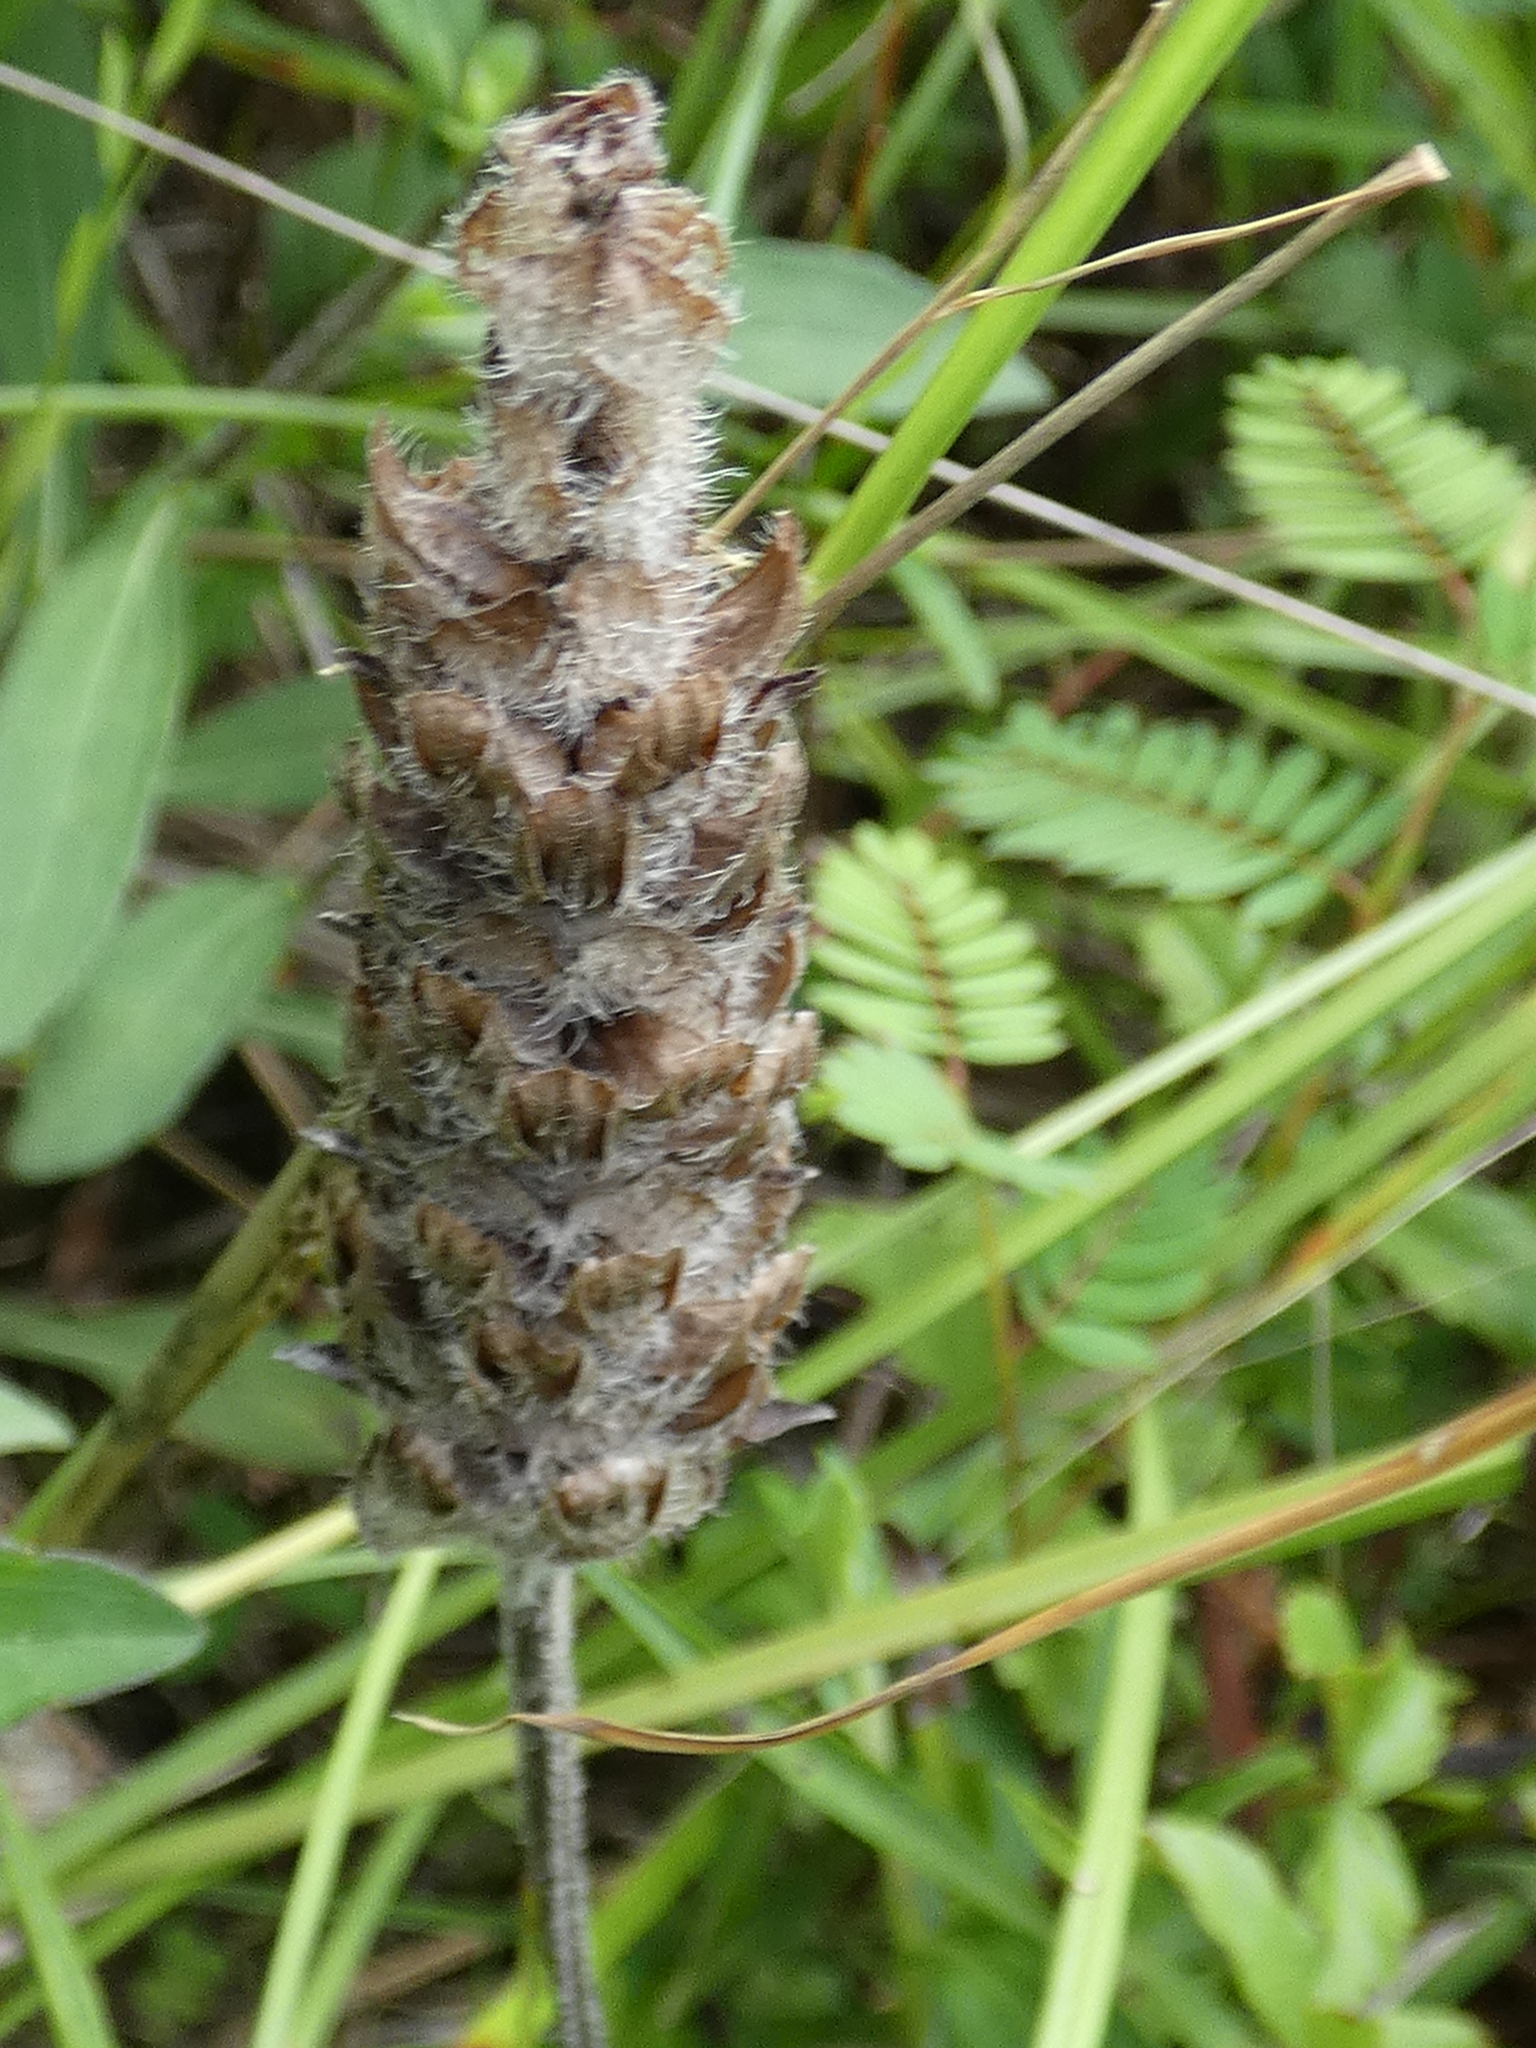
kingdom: Plantae
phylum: Tracheophyta
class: Magnoliopsida
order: Lamiales
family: Lamiaceae
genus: Prunella
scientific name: Prunella vulgaris
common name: Heal-all
